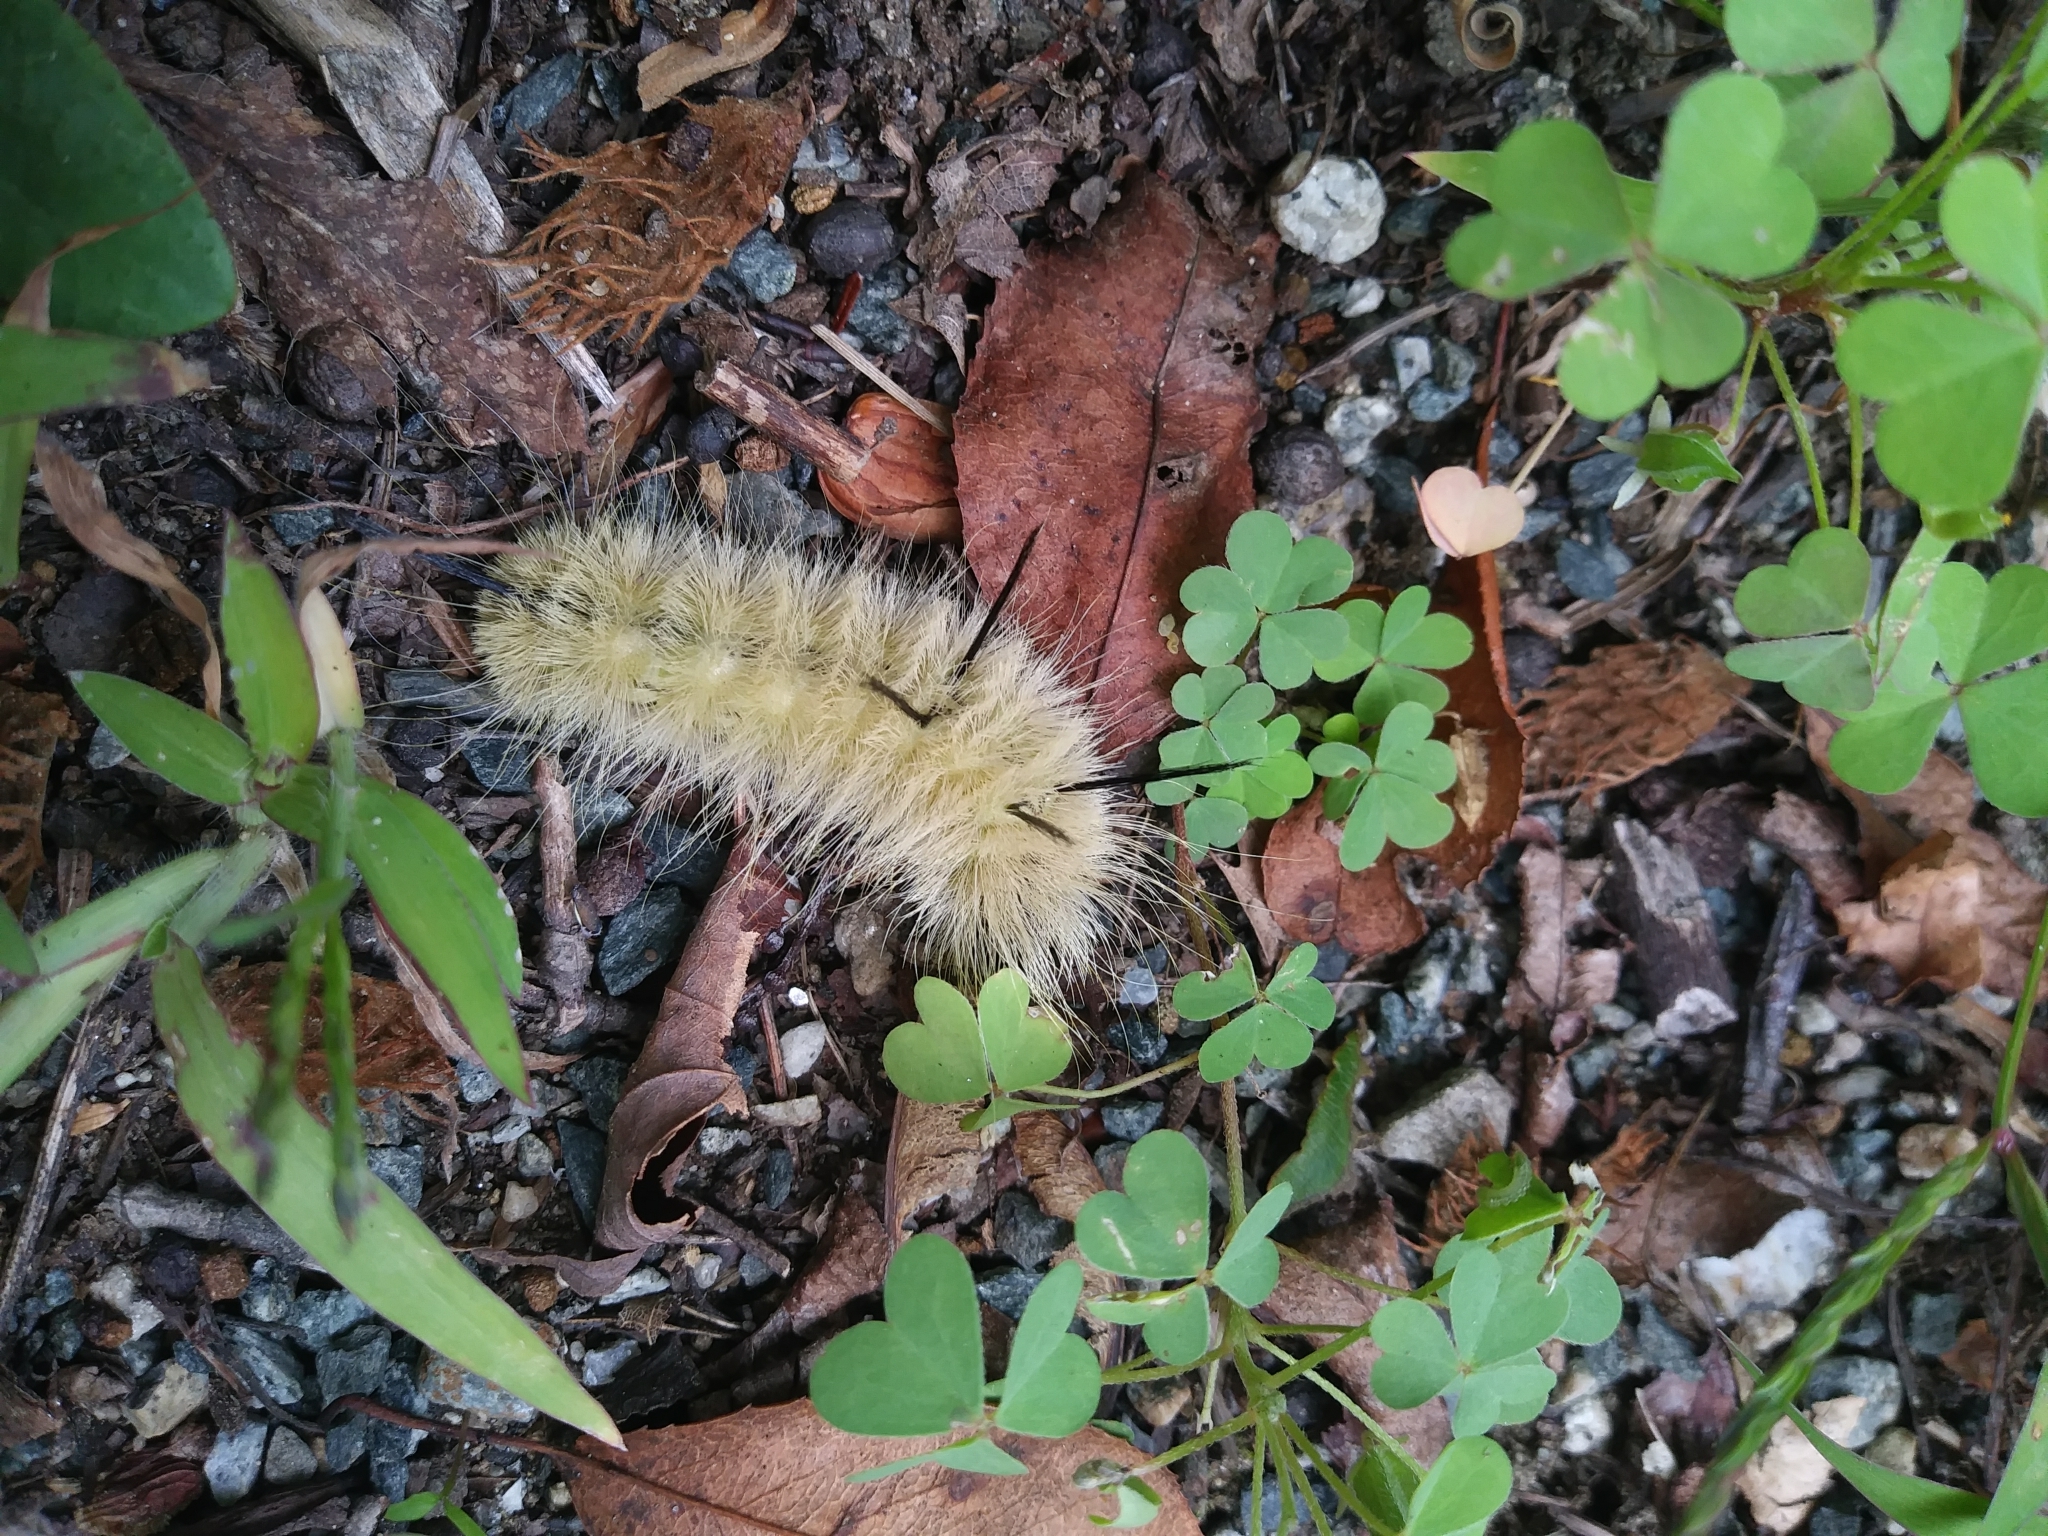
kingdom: Animalia
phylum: Arthropoda
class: Insecta
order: Lepidoptera
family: Noctuidae
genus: Acronicta
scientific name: Acronicta americana
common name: American dagger
